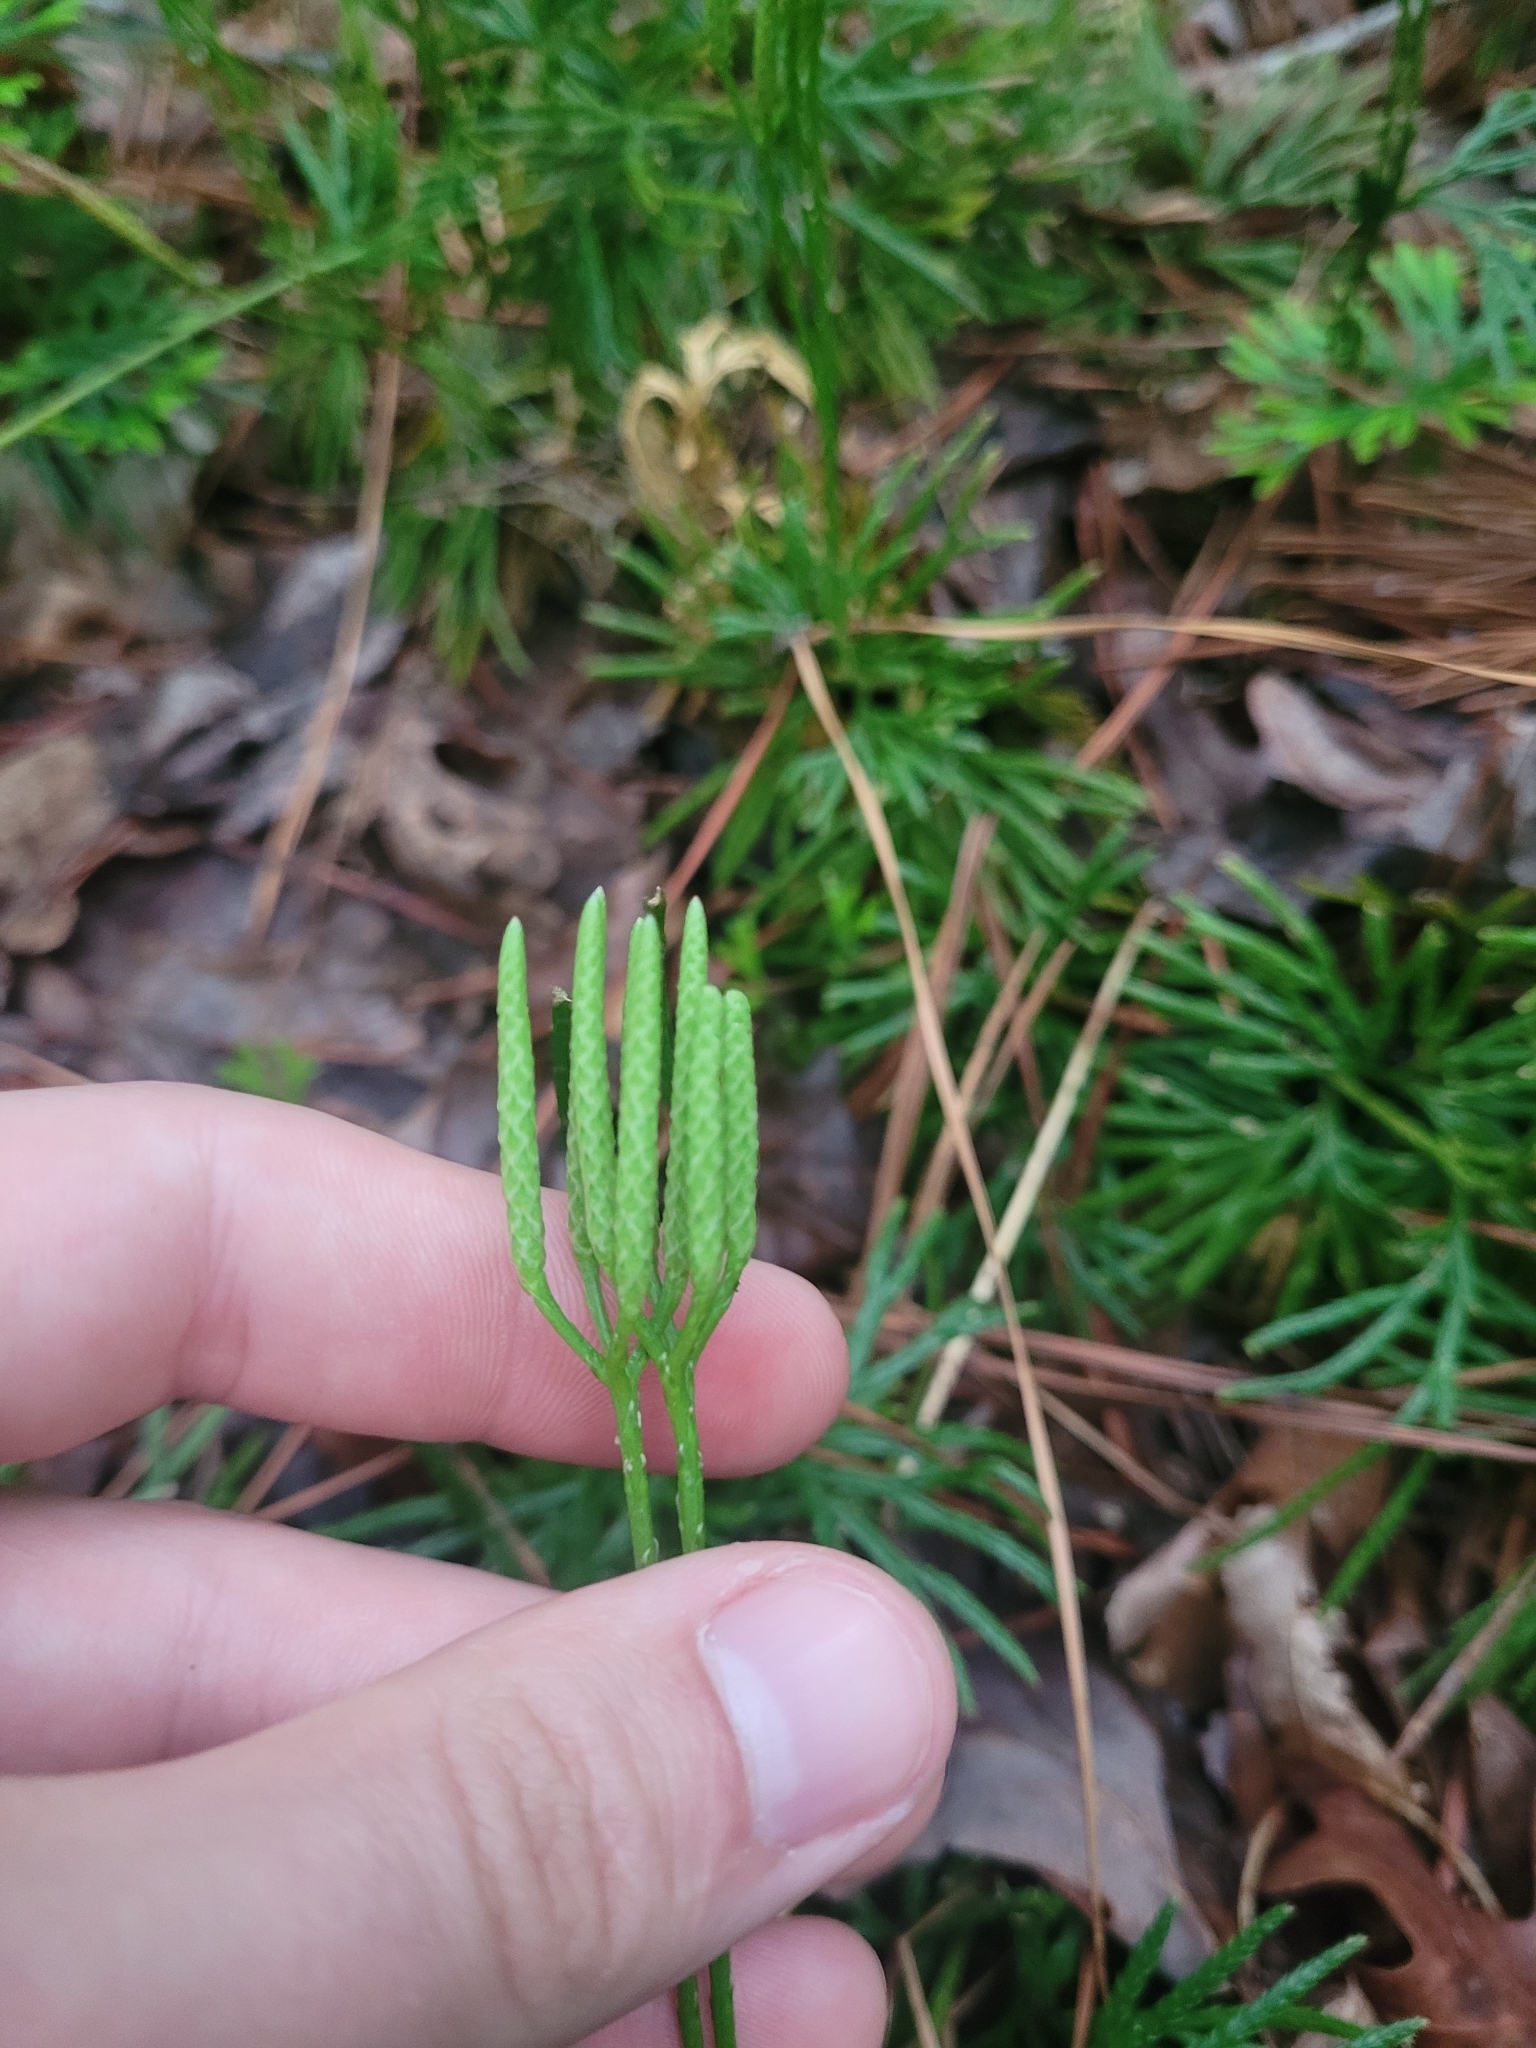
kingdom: Plantae
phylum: Tracheophyta
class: Lycopodiopsida
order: Lycopodiales
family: Lycopodiaceae
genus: Diphasiastrum
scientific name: Diphasiastrum digitatum
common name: Southern running-pine
